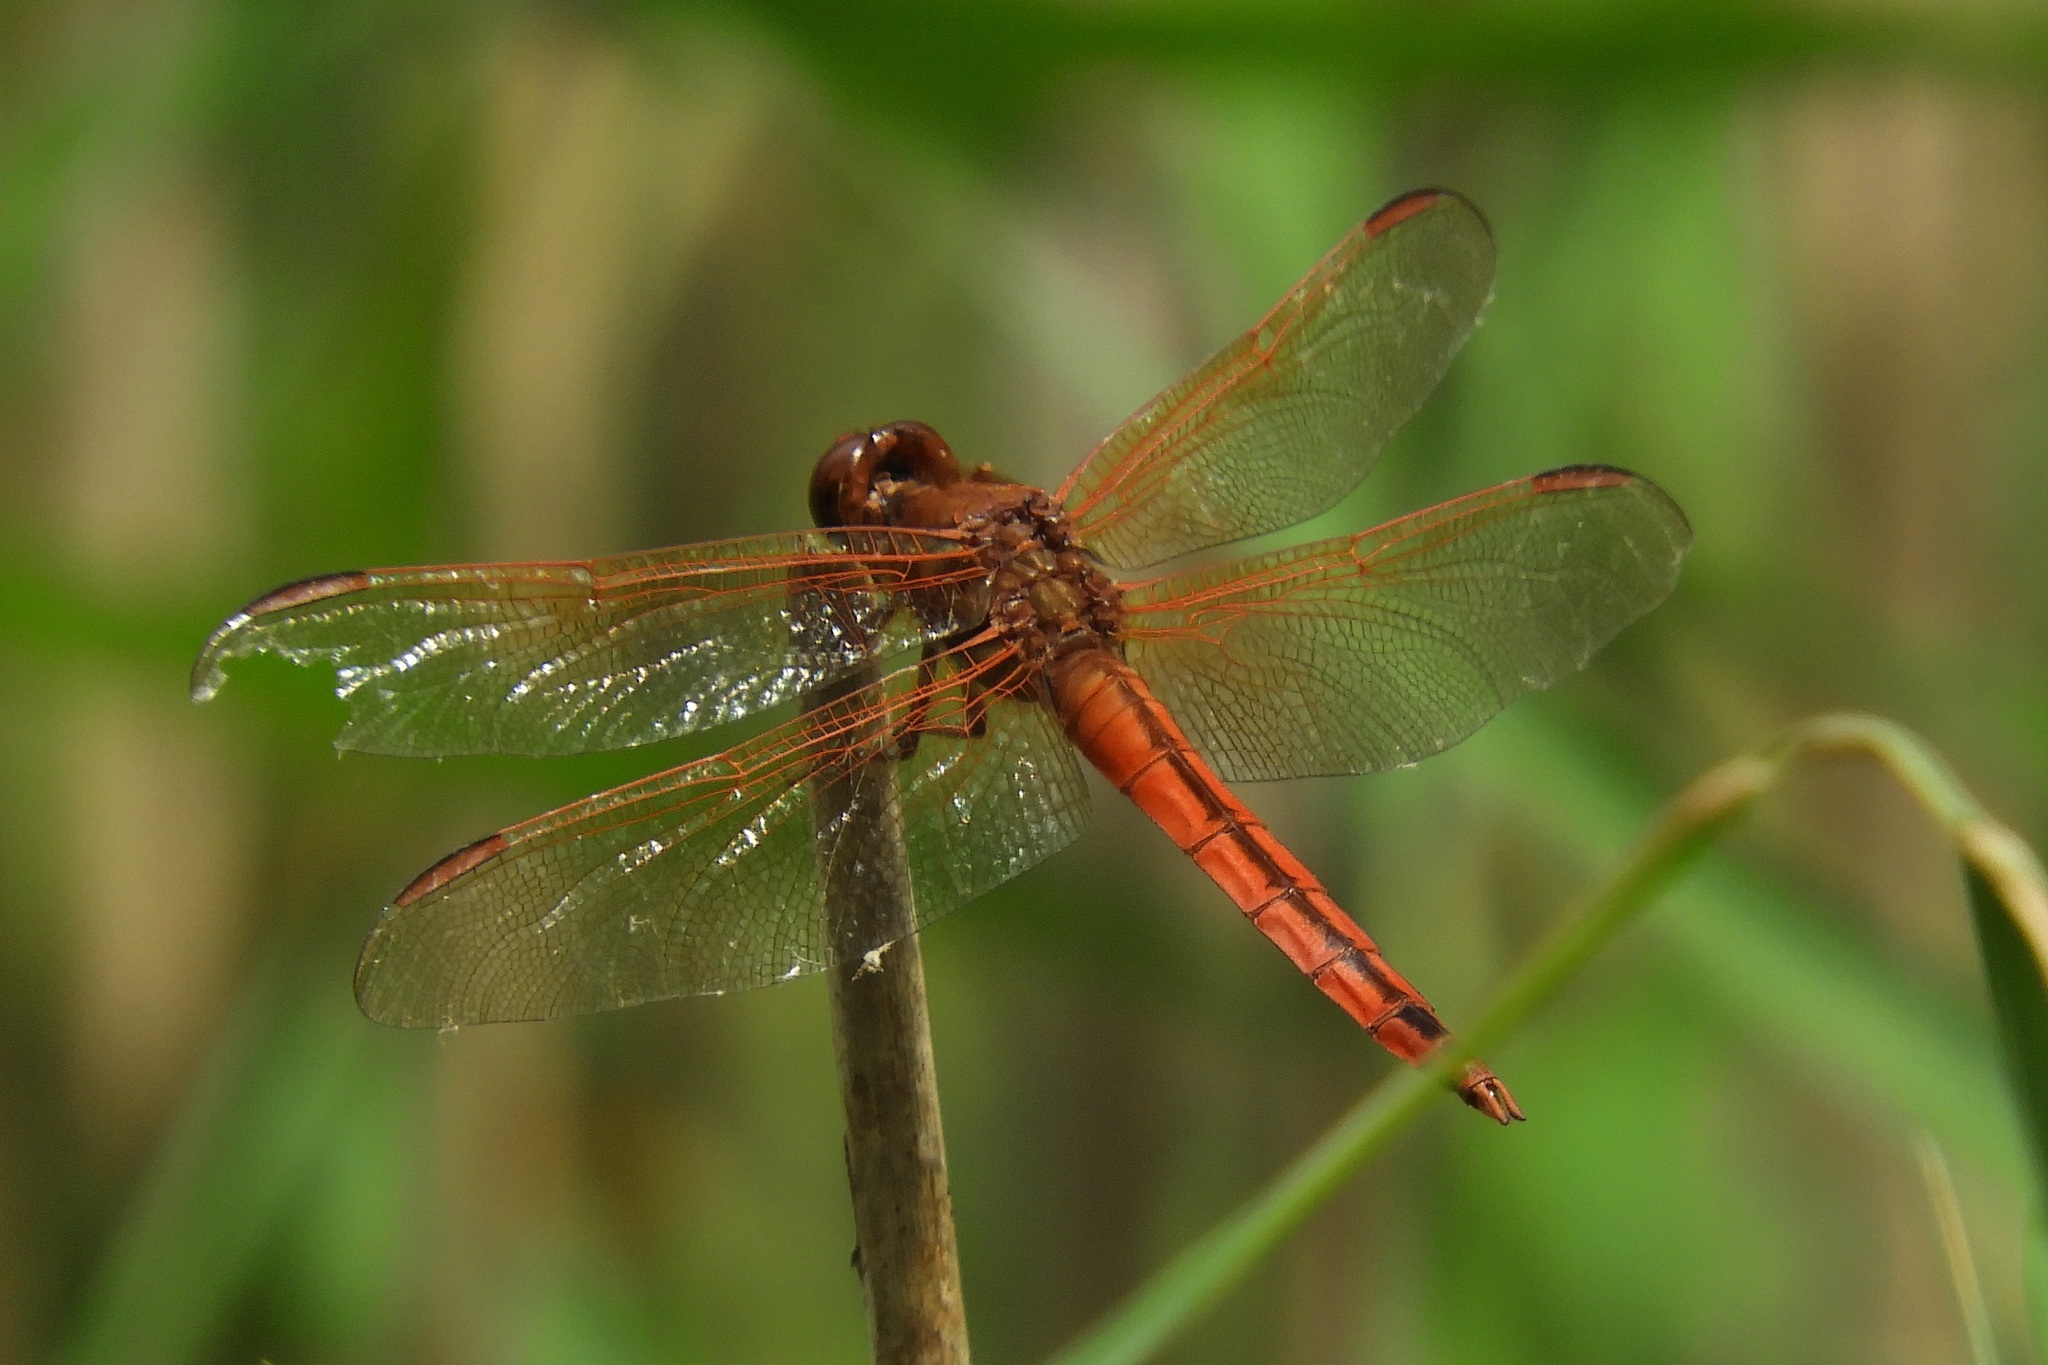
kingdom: Animalia
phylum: Arthropoda
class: Insecta
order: Odonata
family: Libellulidae
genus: Libellula
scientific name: Libellula needhami
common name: Needham's skimmer
